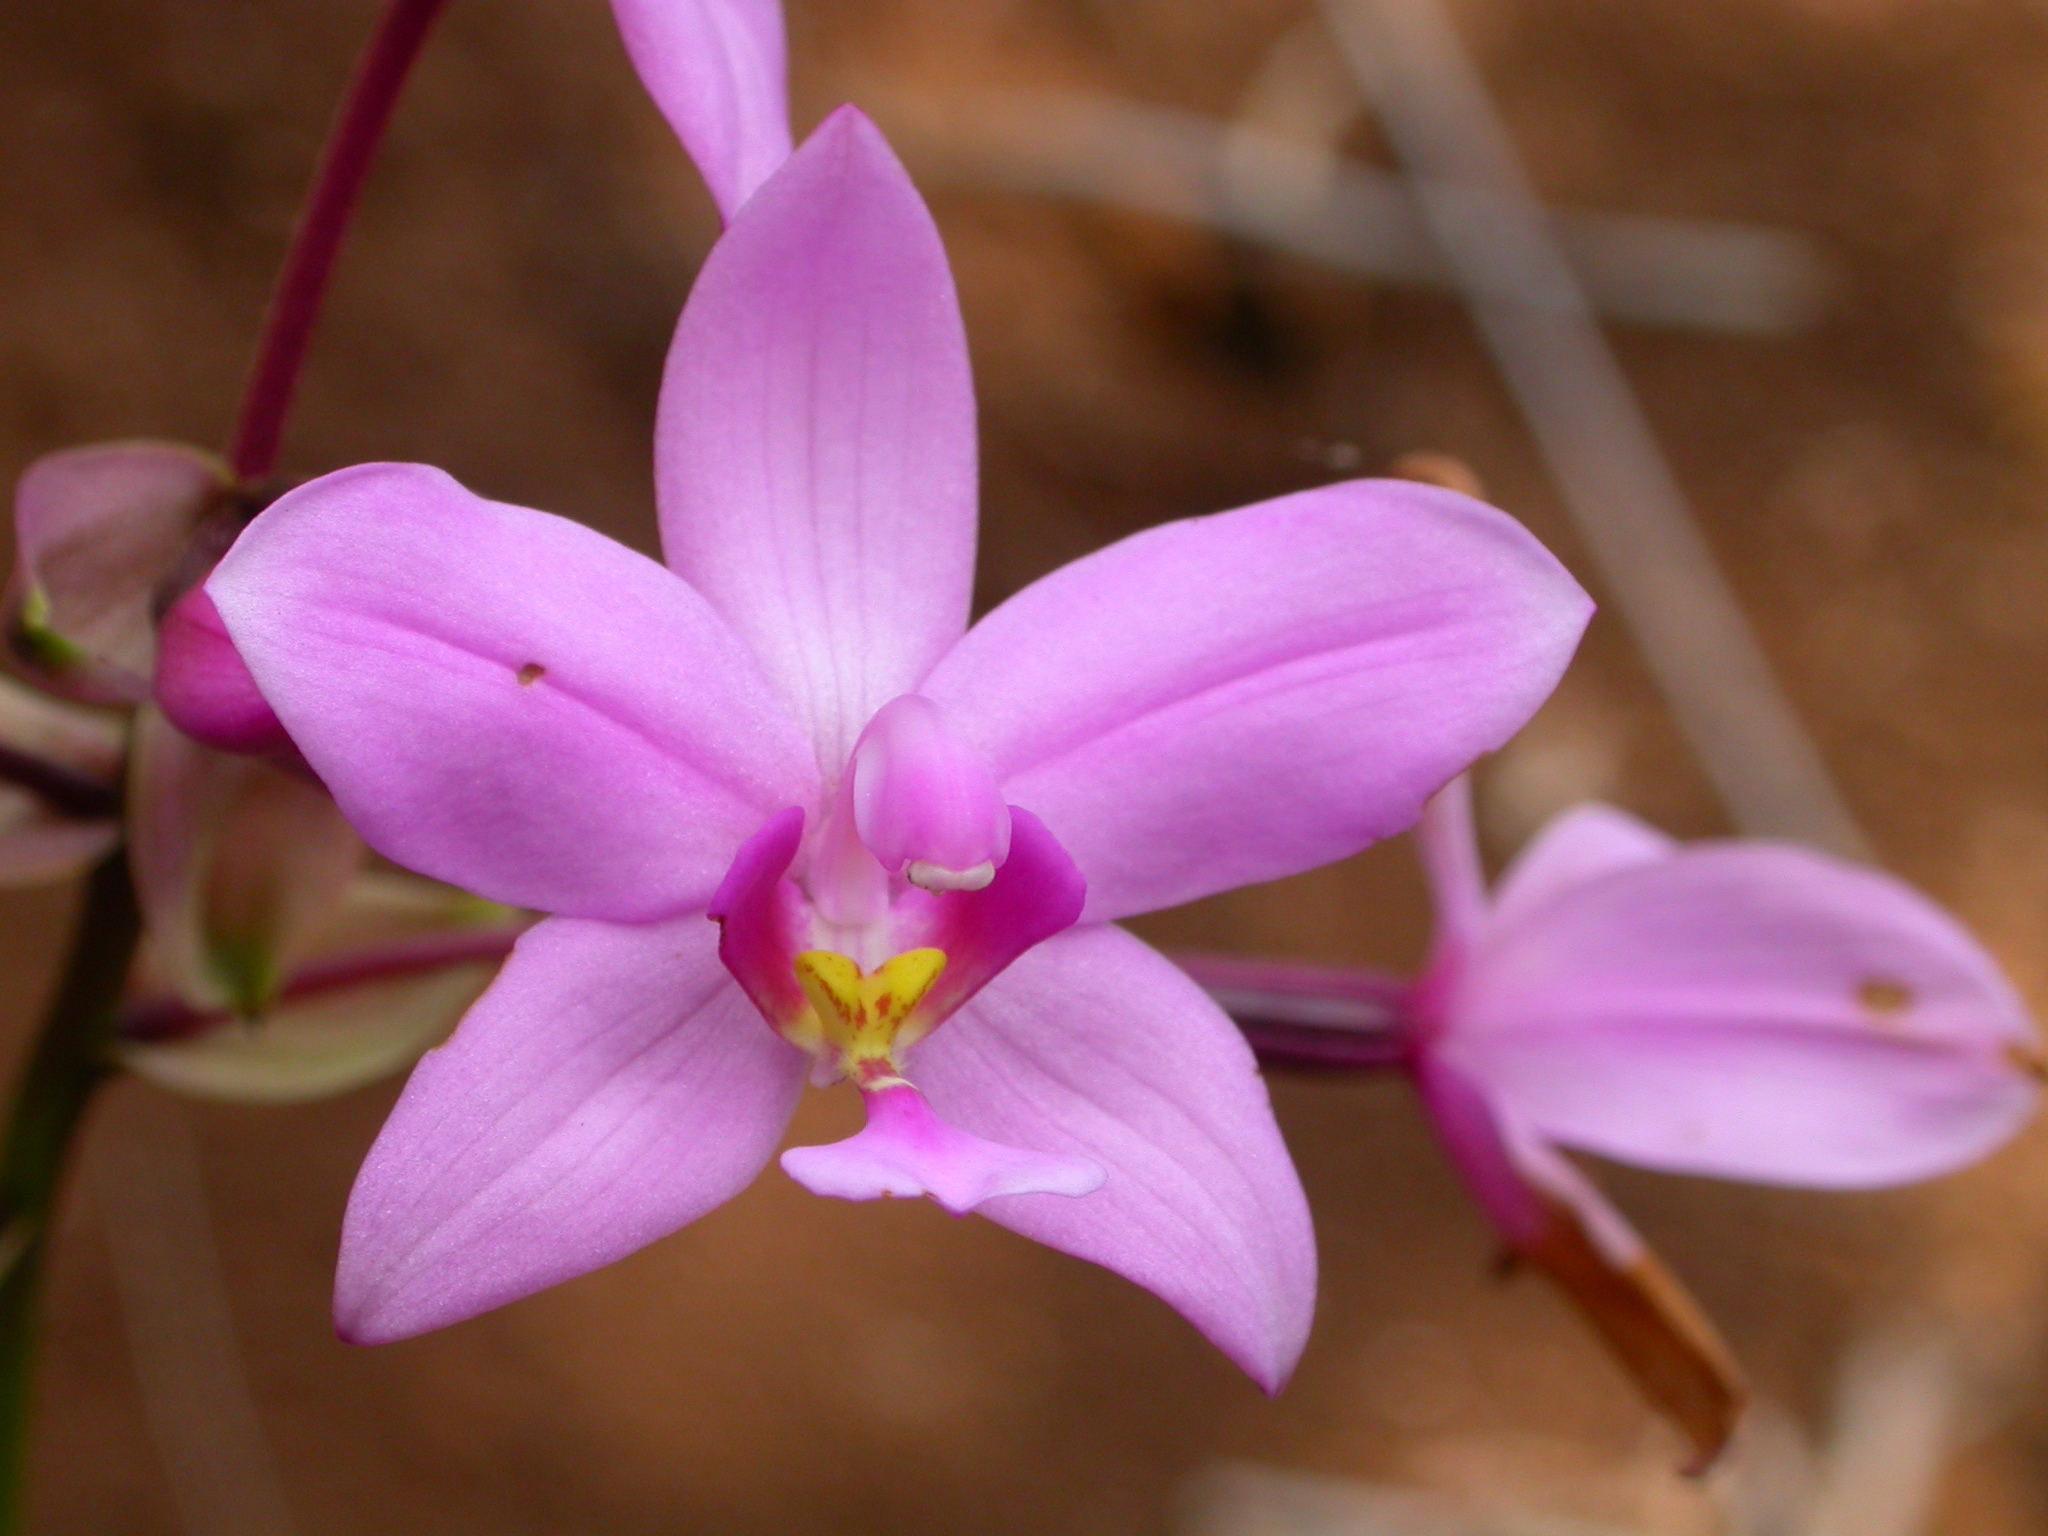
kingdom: Plantae
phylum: Tracheophyta
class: Liliopsida
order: Asparagales
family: Orchidaceae
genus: Spathoglottis
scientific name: Spathoglottis plicata
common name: Philippine ground orchid
